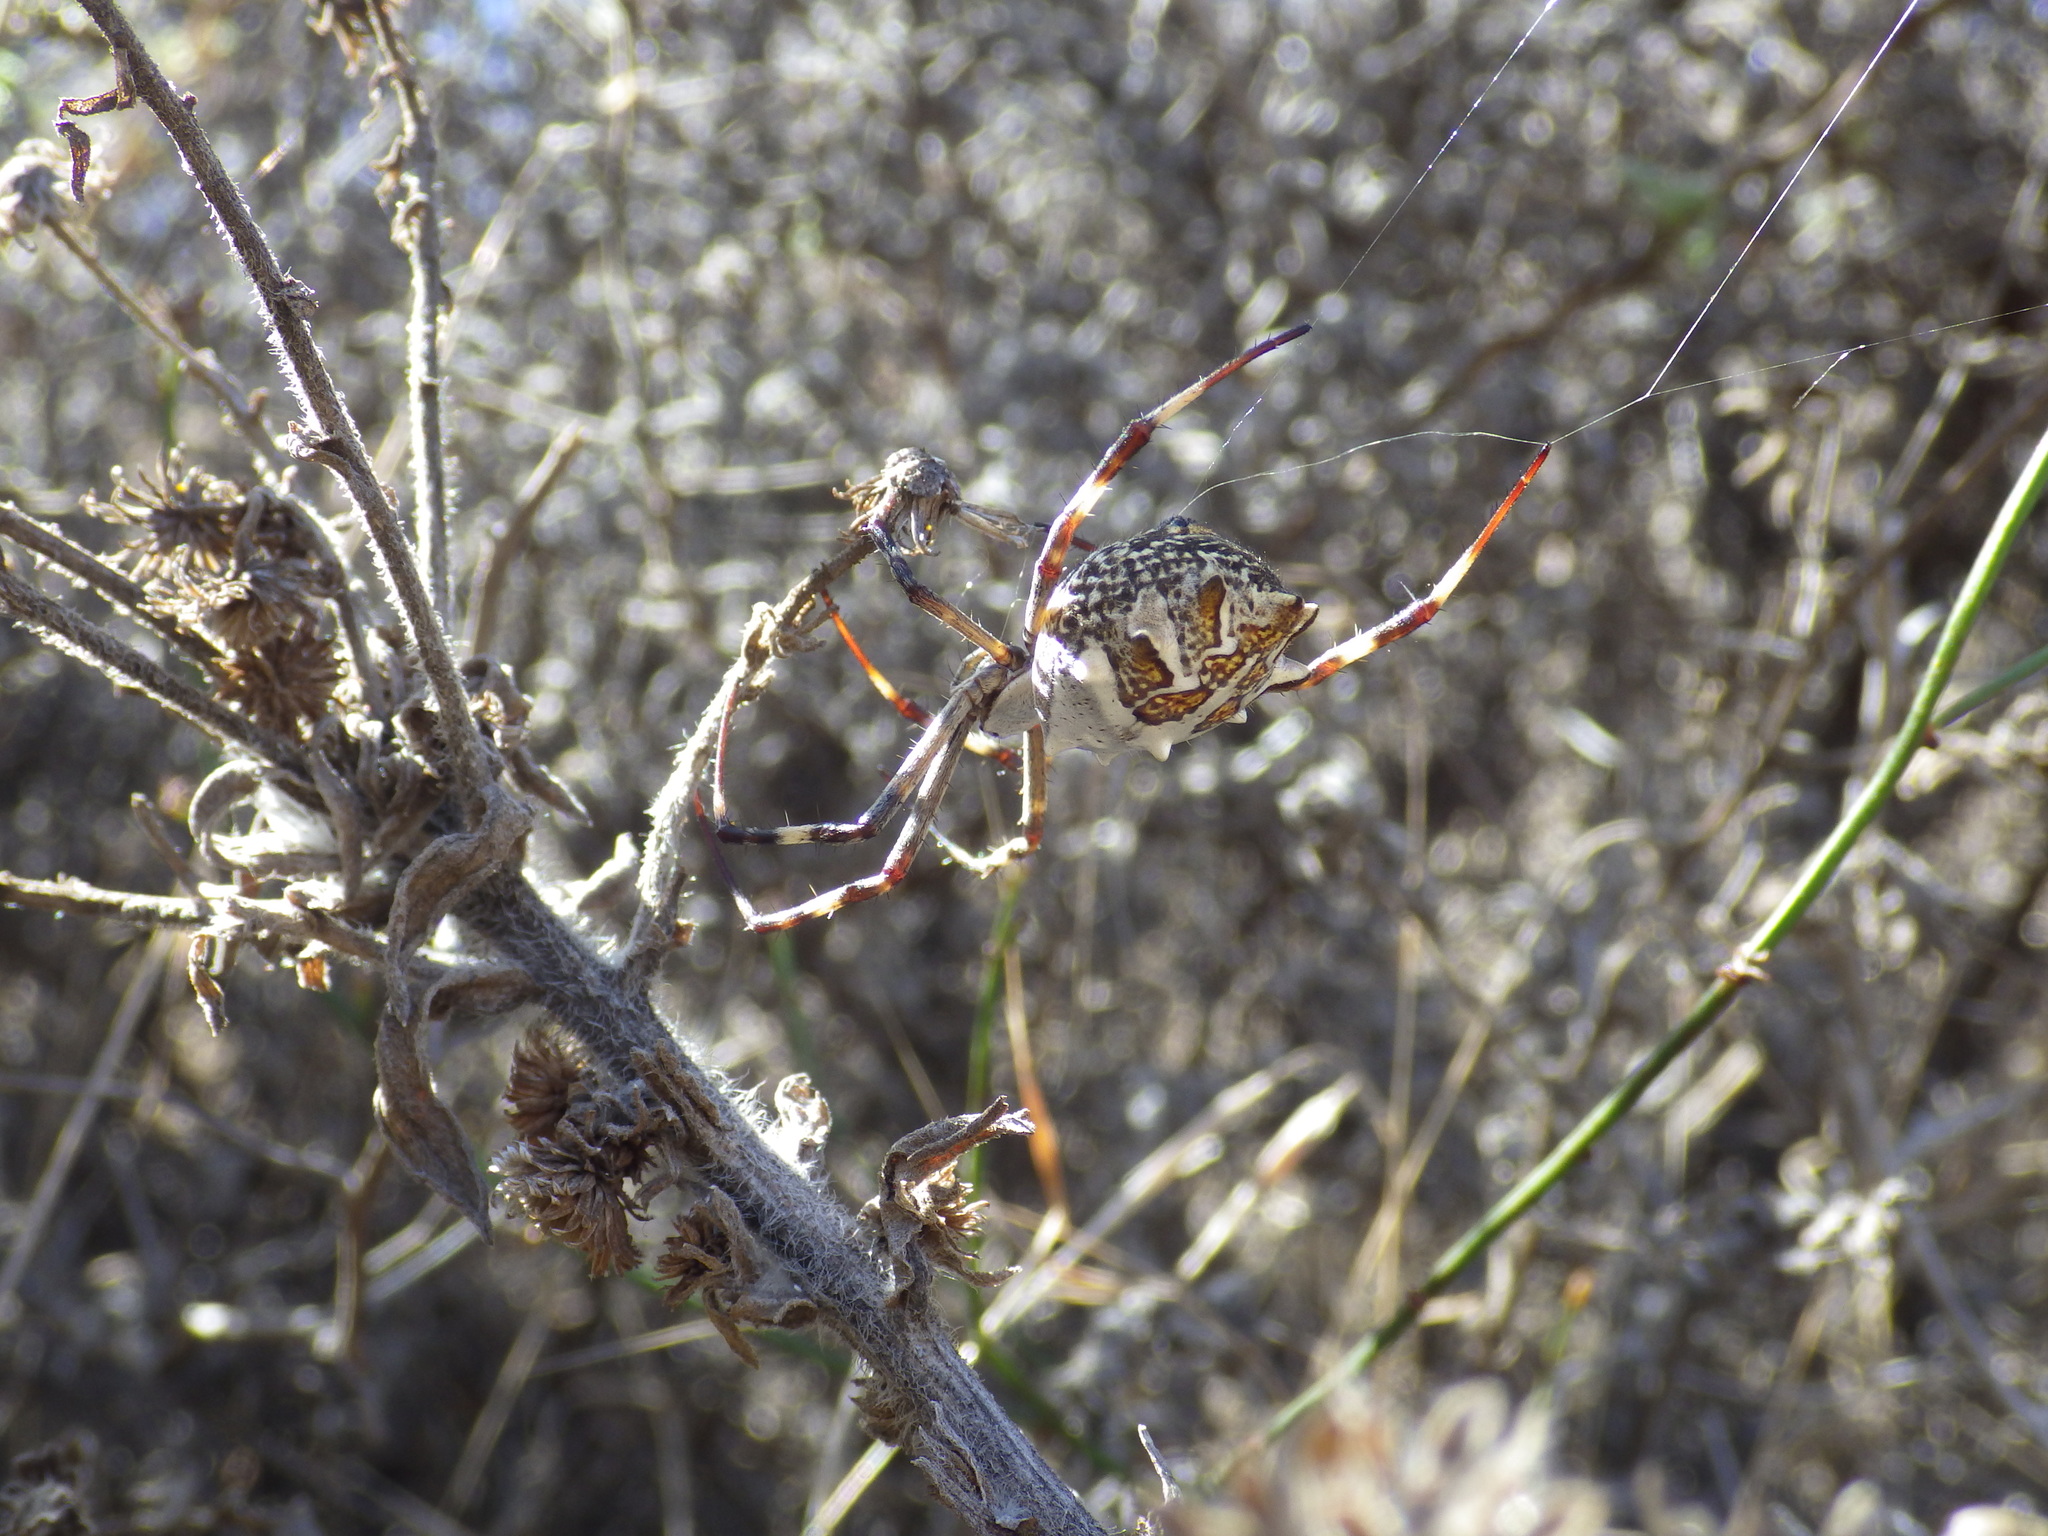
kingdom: Animalia
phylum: Arthropoda
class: Arachnida
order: Araneae
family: Araneidae
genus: Argiope
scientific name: Argiope argentata
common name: Orb weavers
